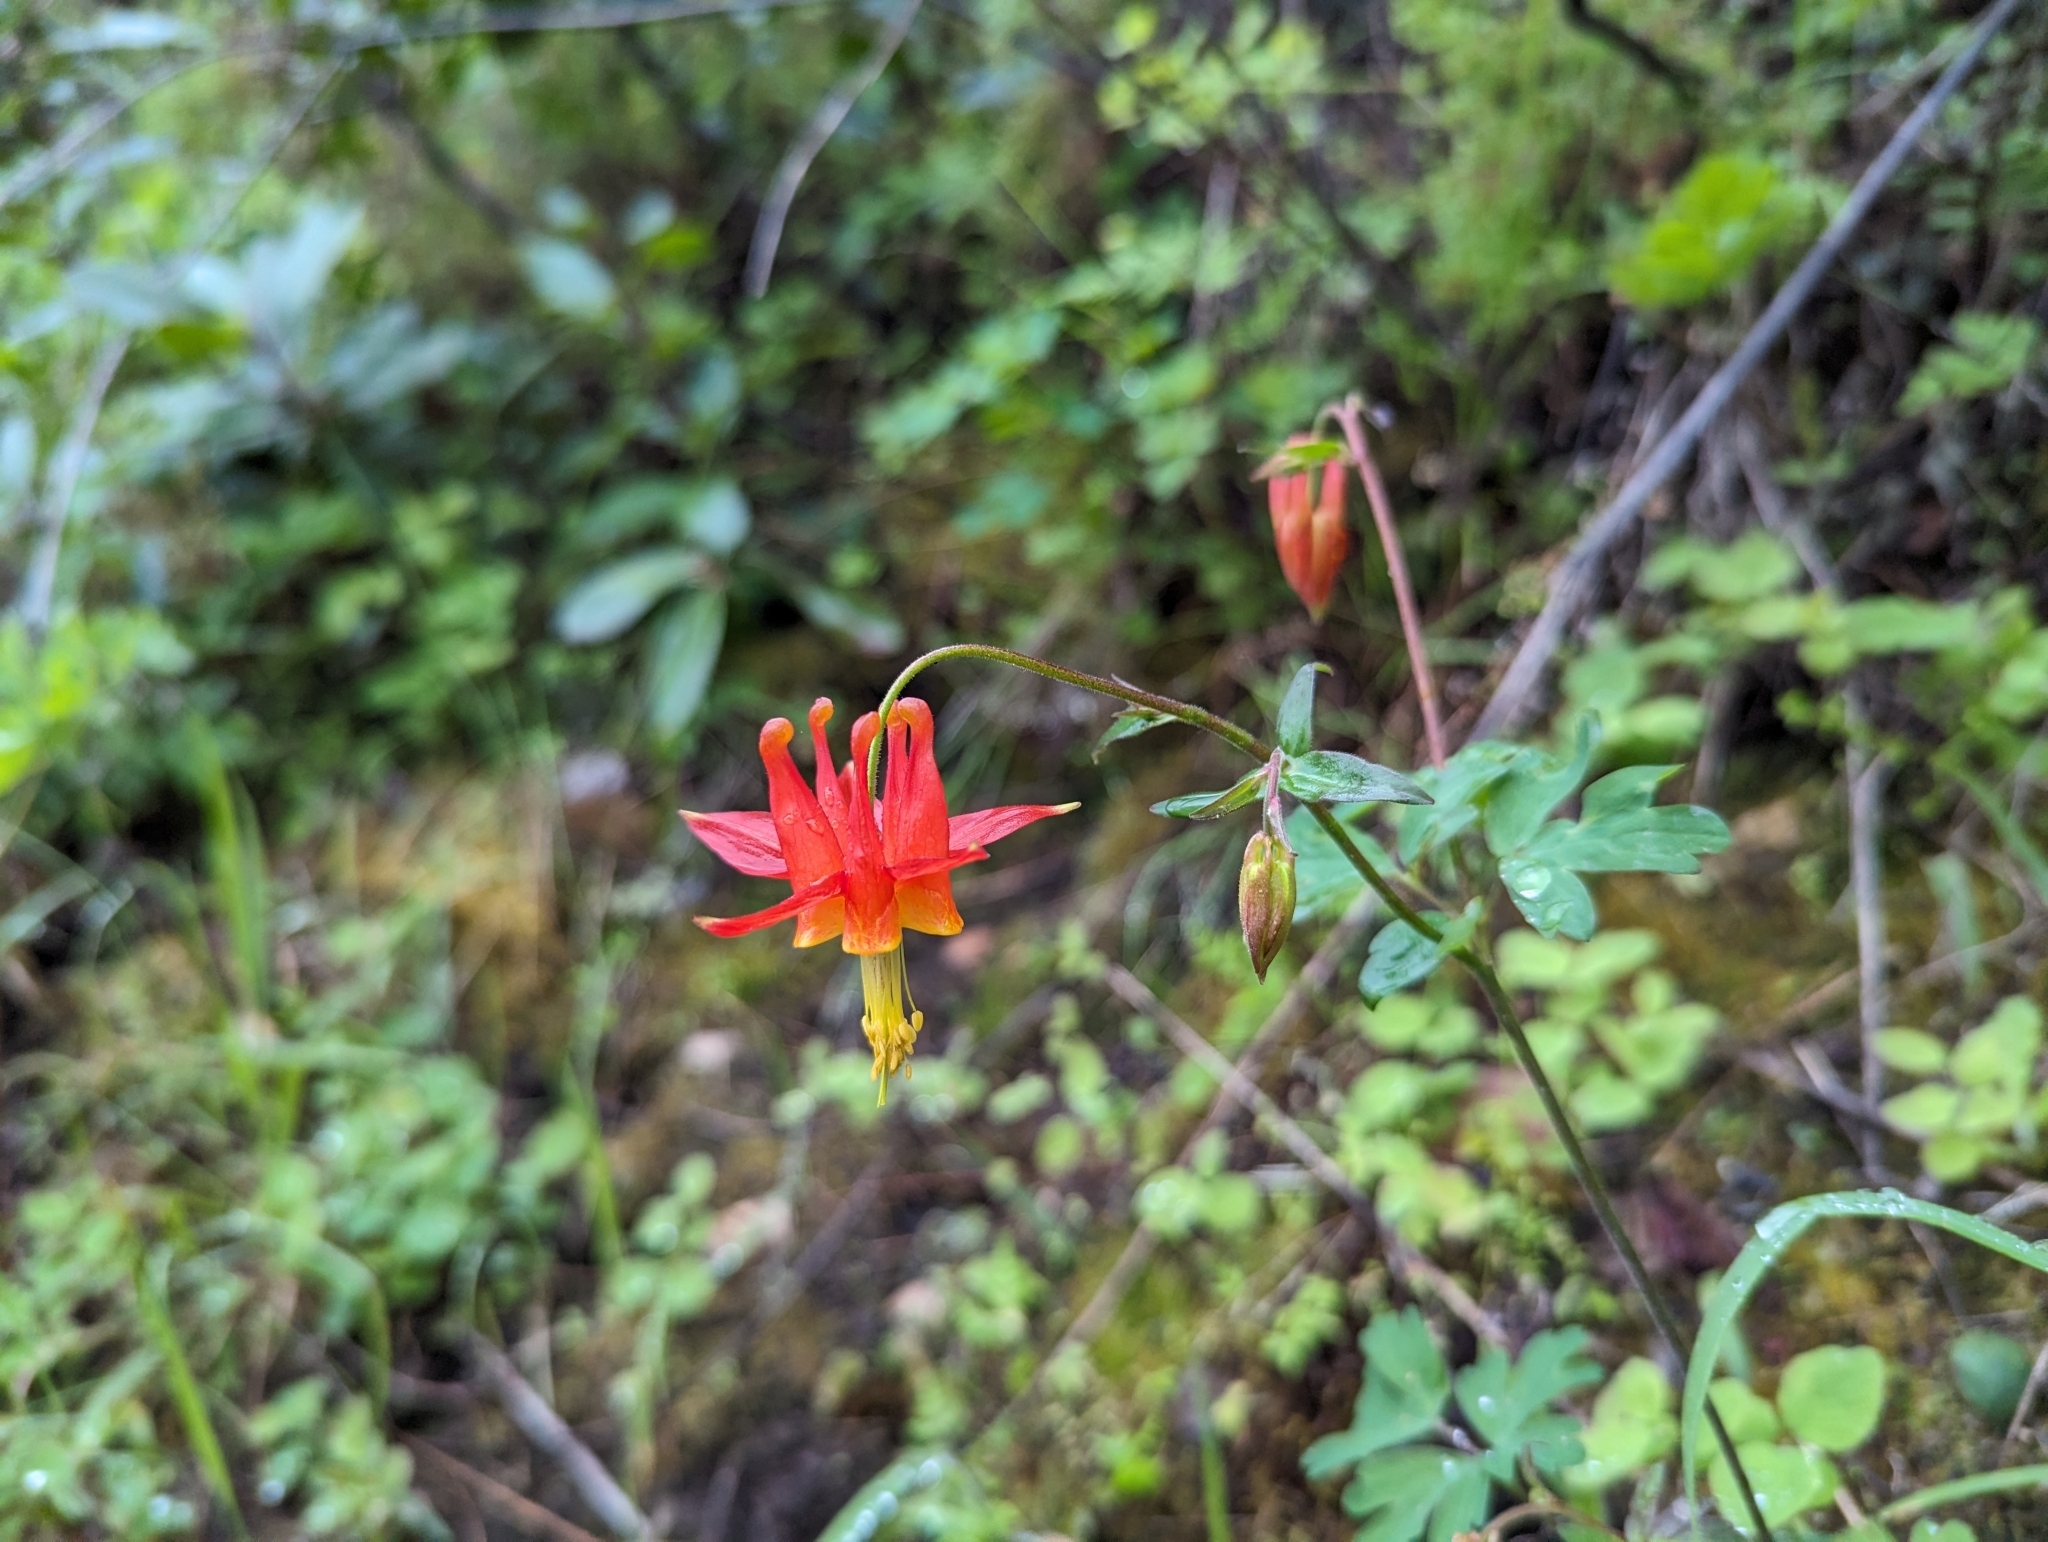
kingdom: Plantae
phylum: Tracheophyta
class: Magnoliopsida
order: Ranunculales
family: Ranunculaceae
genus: Aquilegia
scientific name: Aquilegia formosa
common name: Sitka columbine
